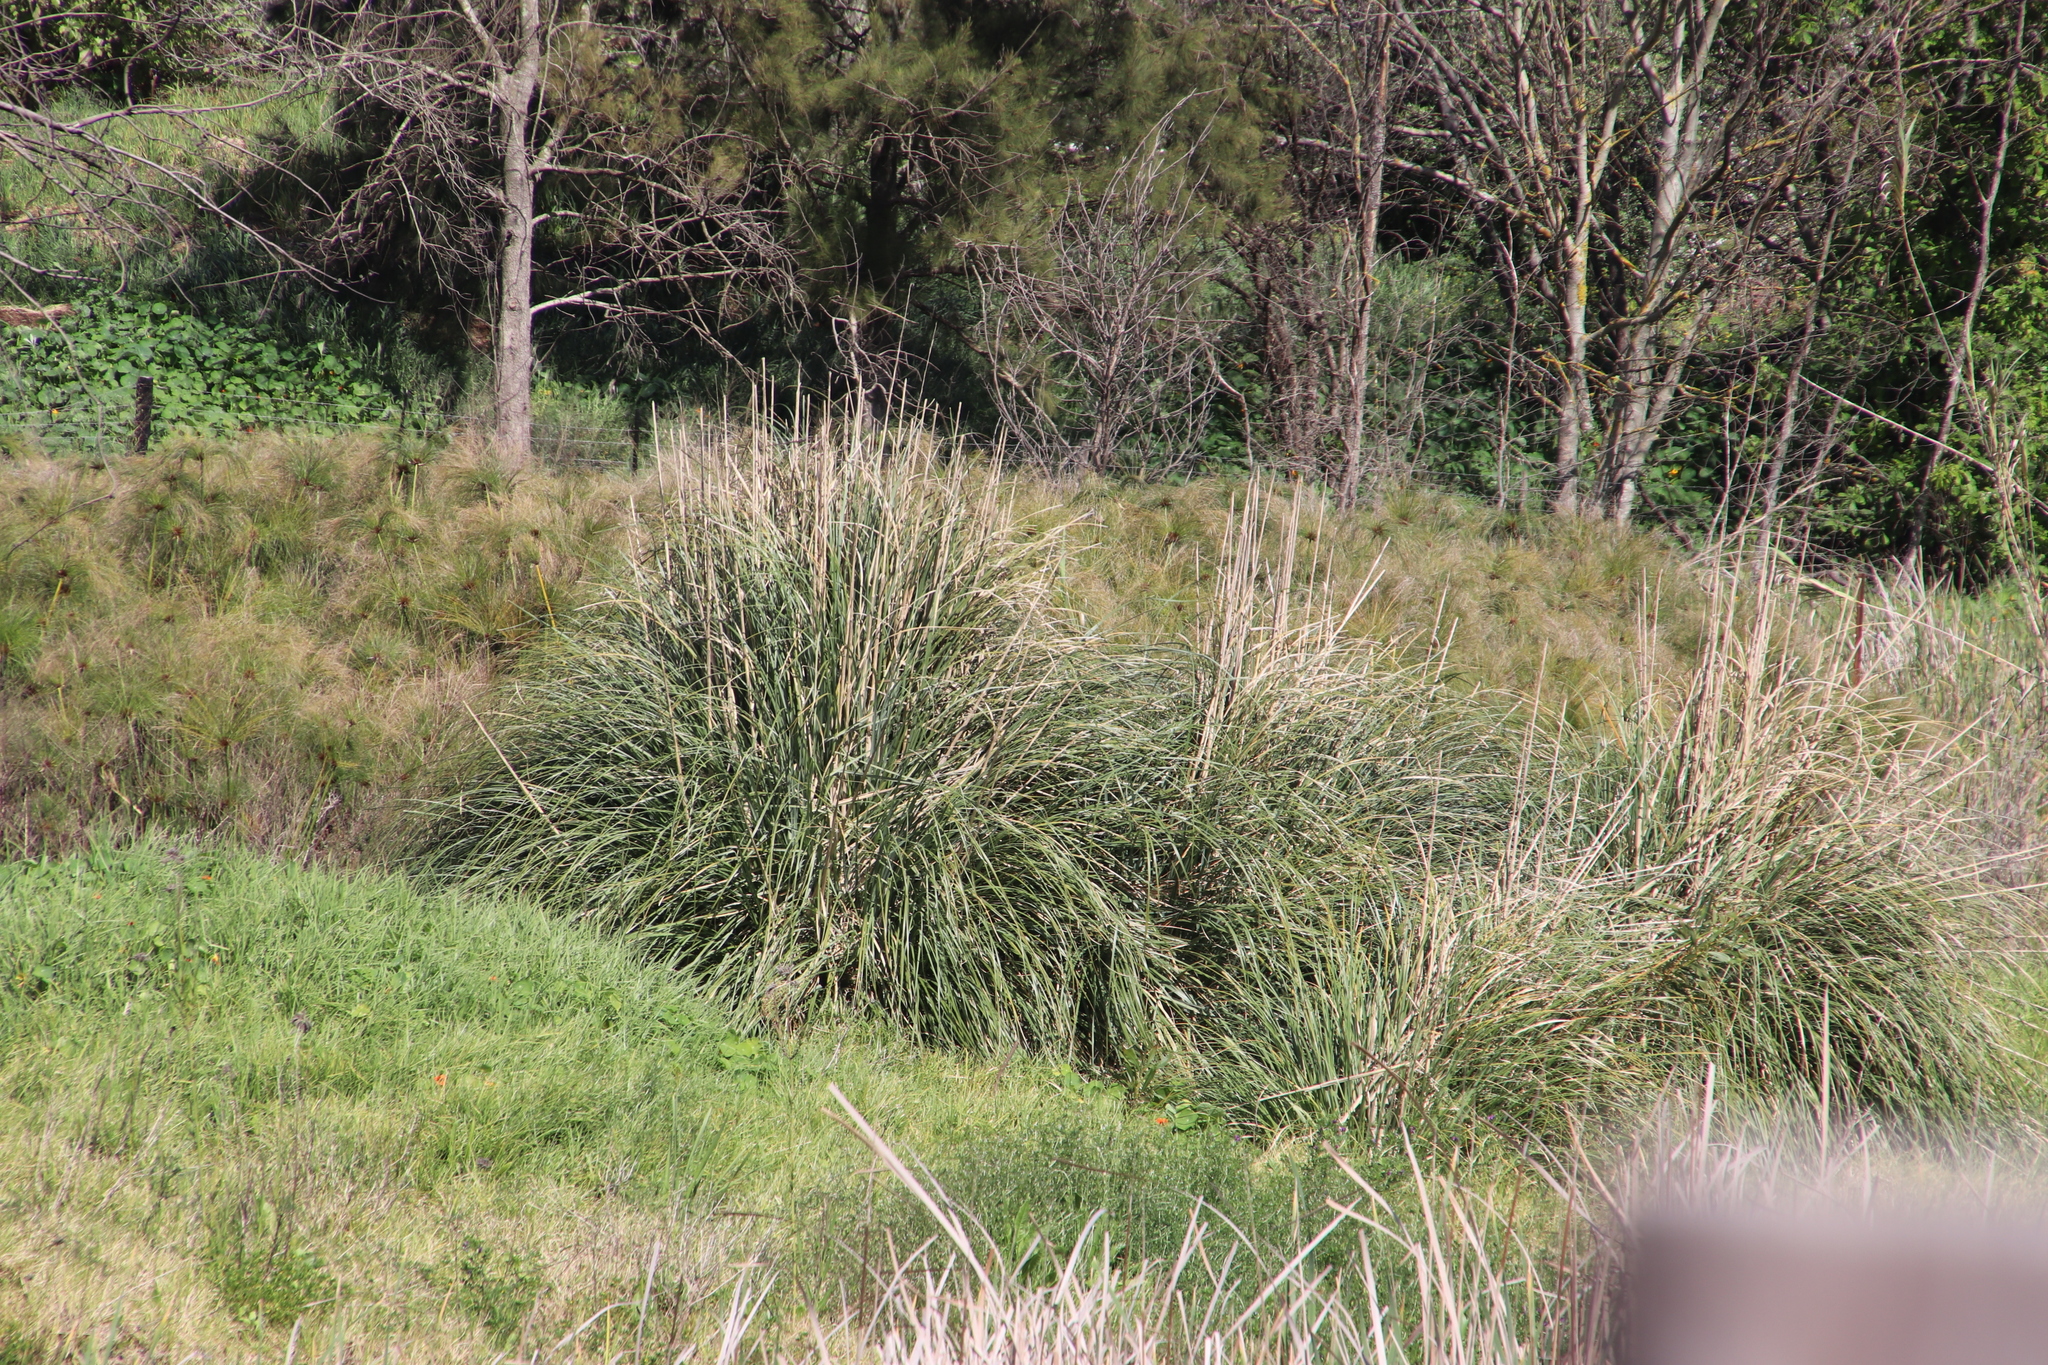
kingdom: Plantae
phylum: Tracheophyta
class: Liliopsida
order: Poales
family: Poaceae
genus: Cortaderia
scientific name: Cortaderia selloana
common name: Uruguayan pampas grass
